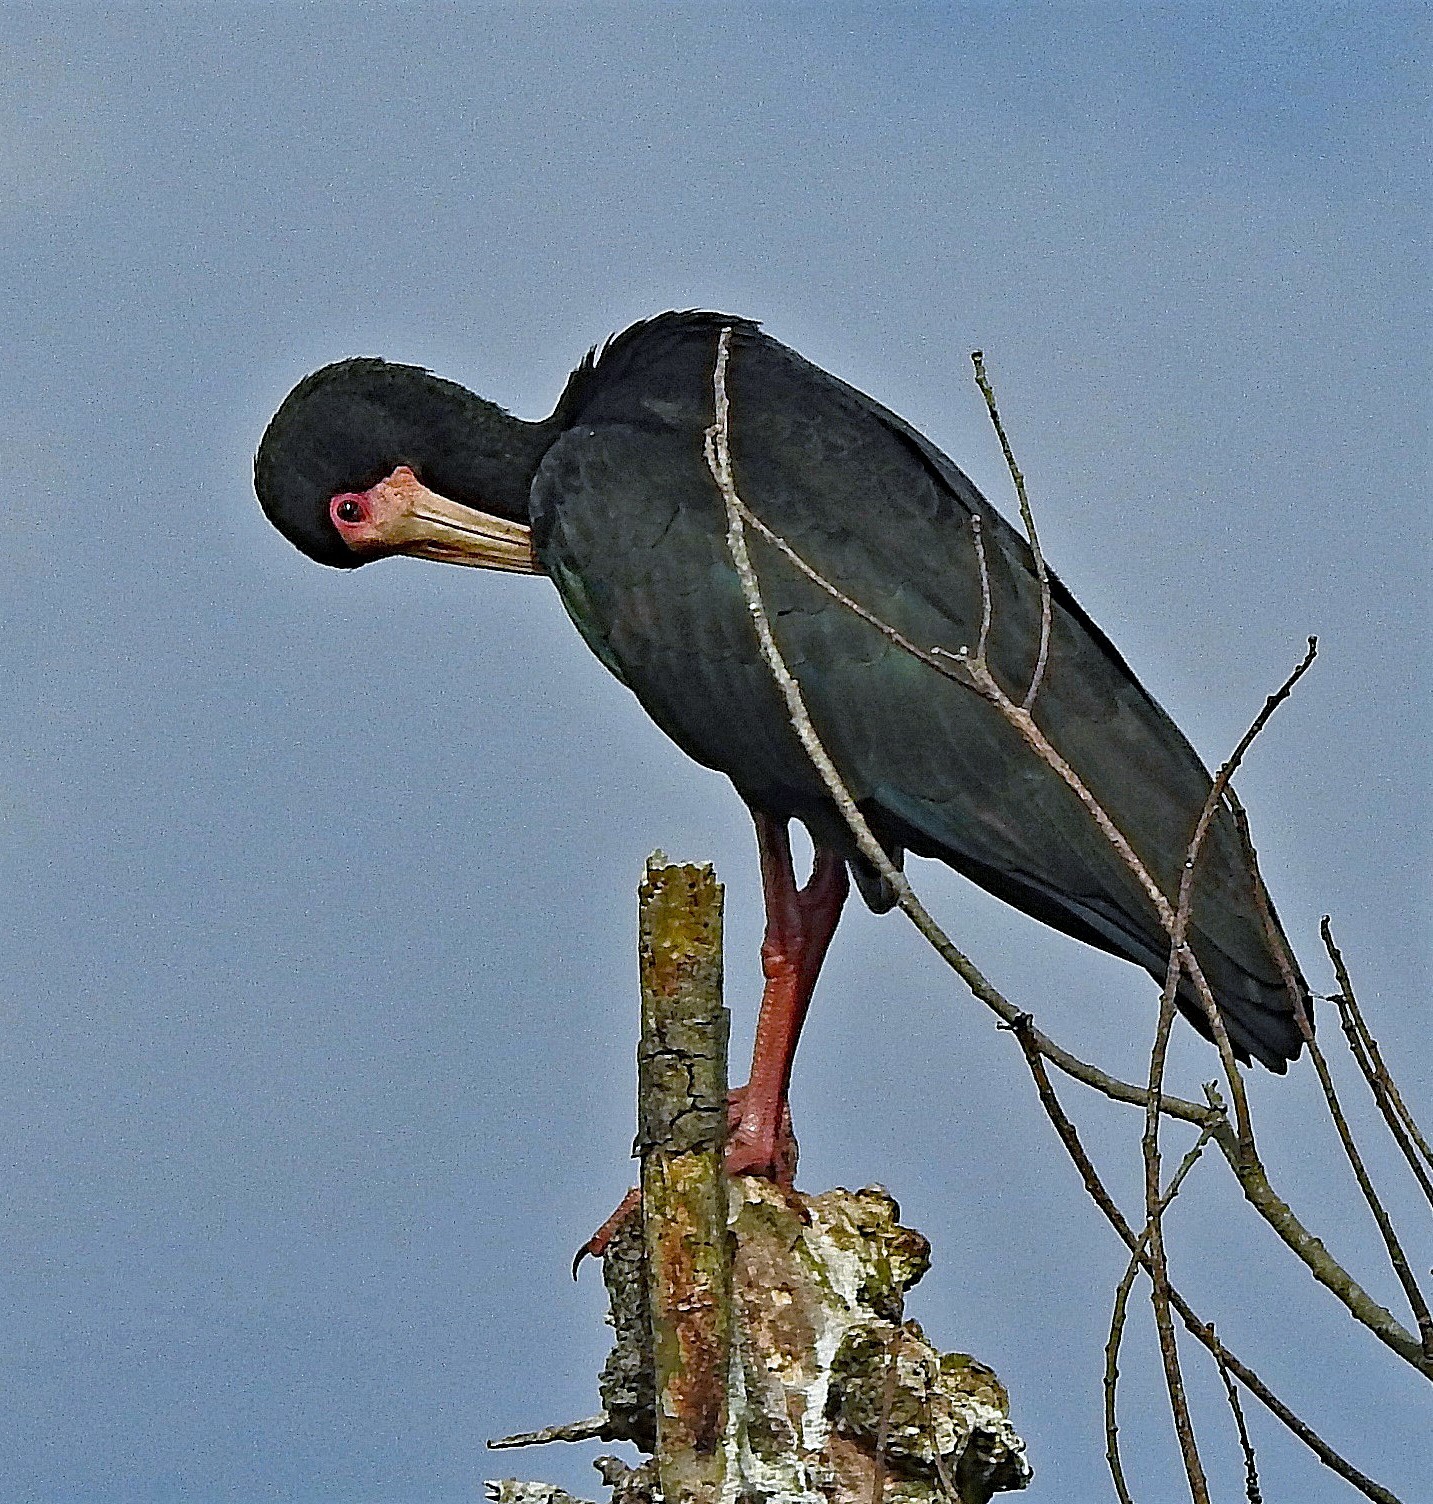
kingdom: Animalia
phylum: Chordata
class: Aves
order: Pelecaniformes
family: Threskiornithidae
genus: Phimosus
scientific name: Phimosus infuscatus
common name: Bare-faced ibis
